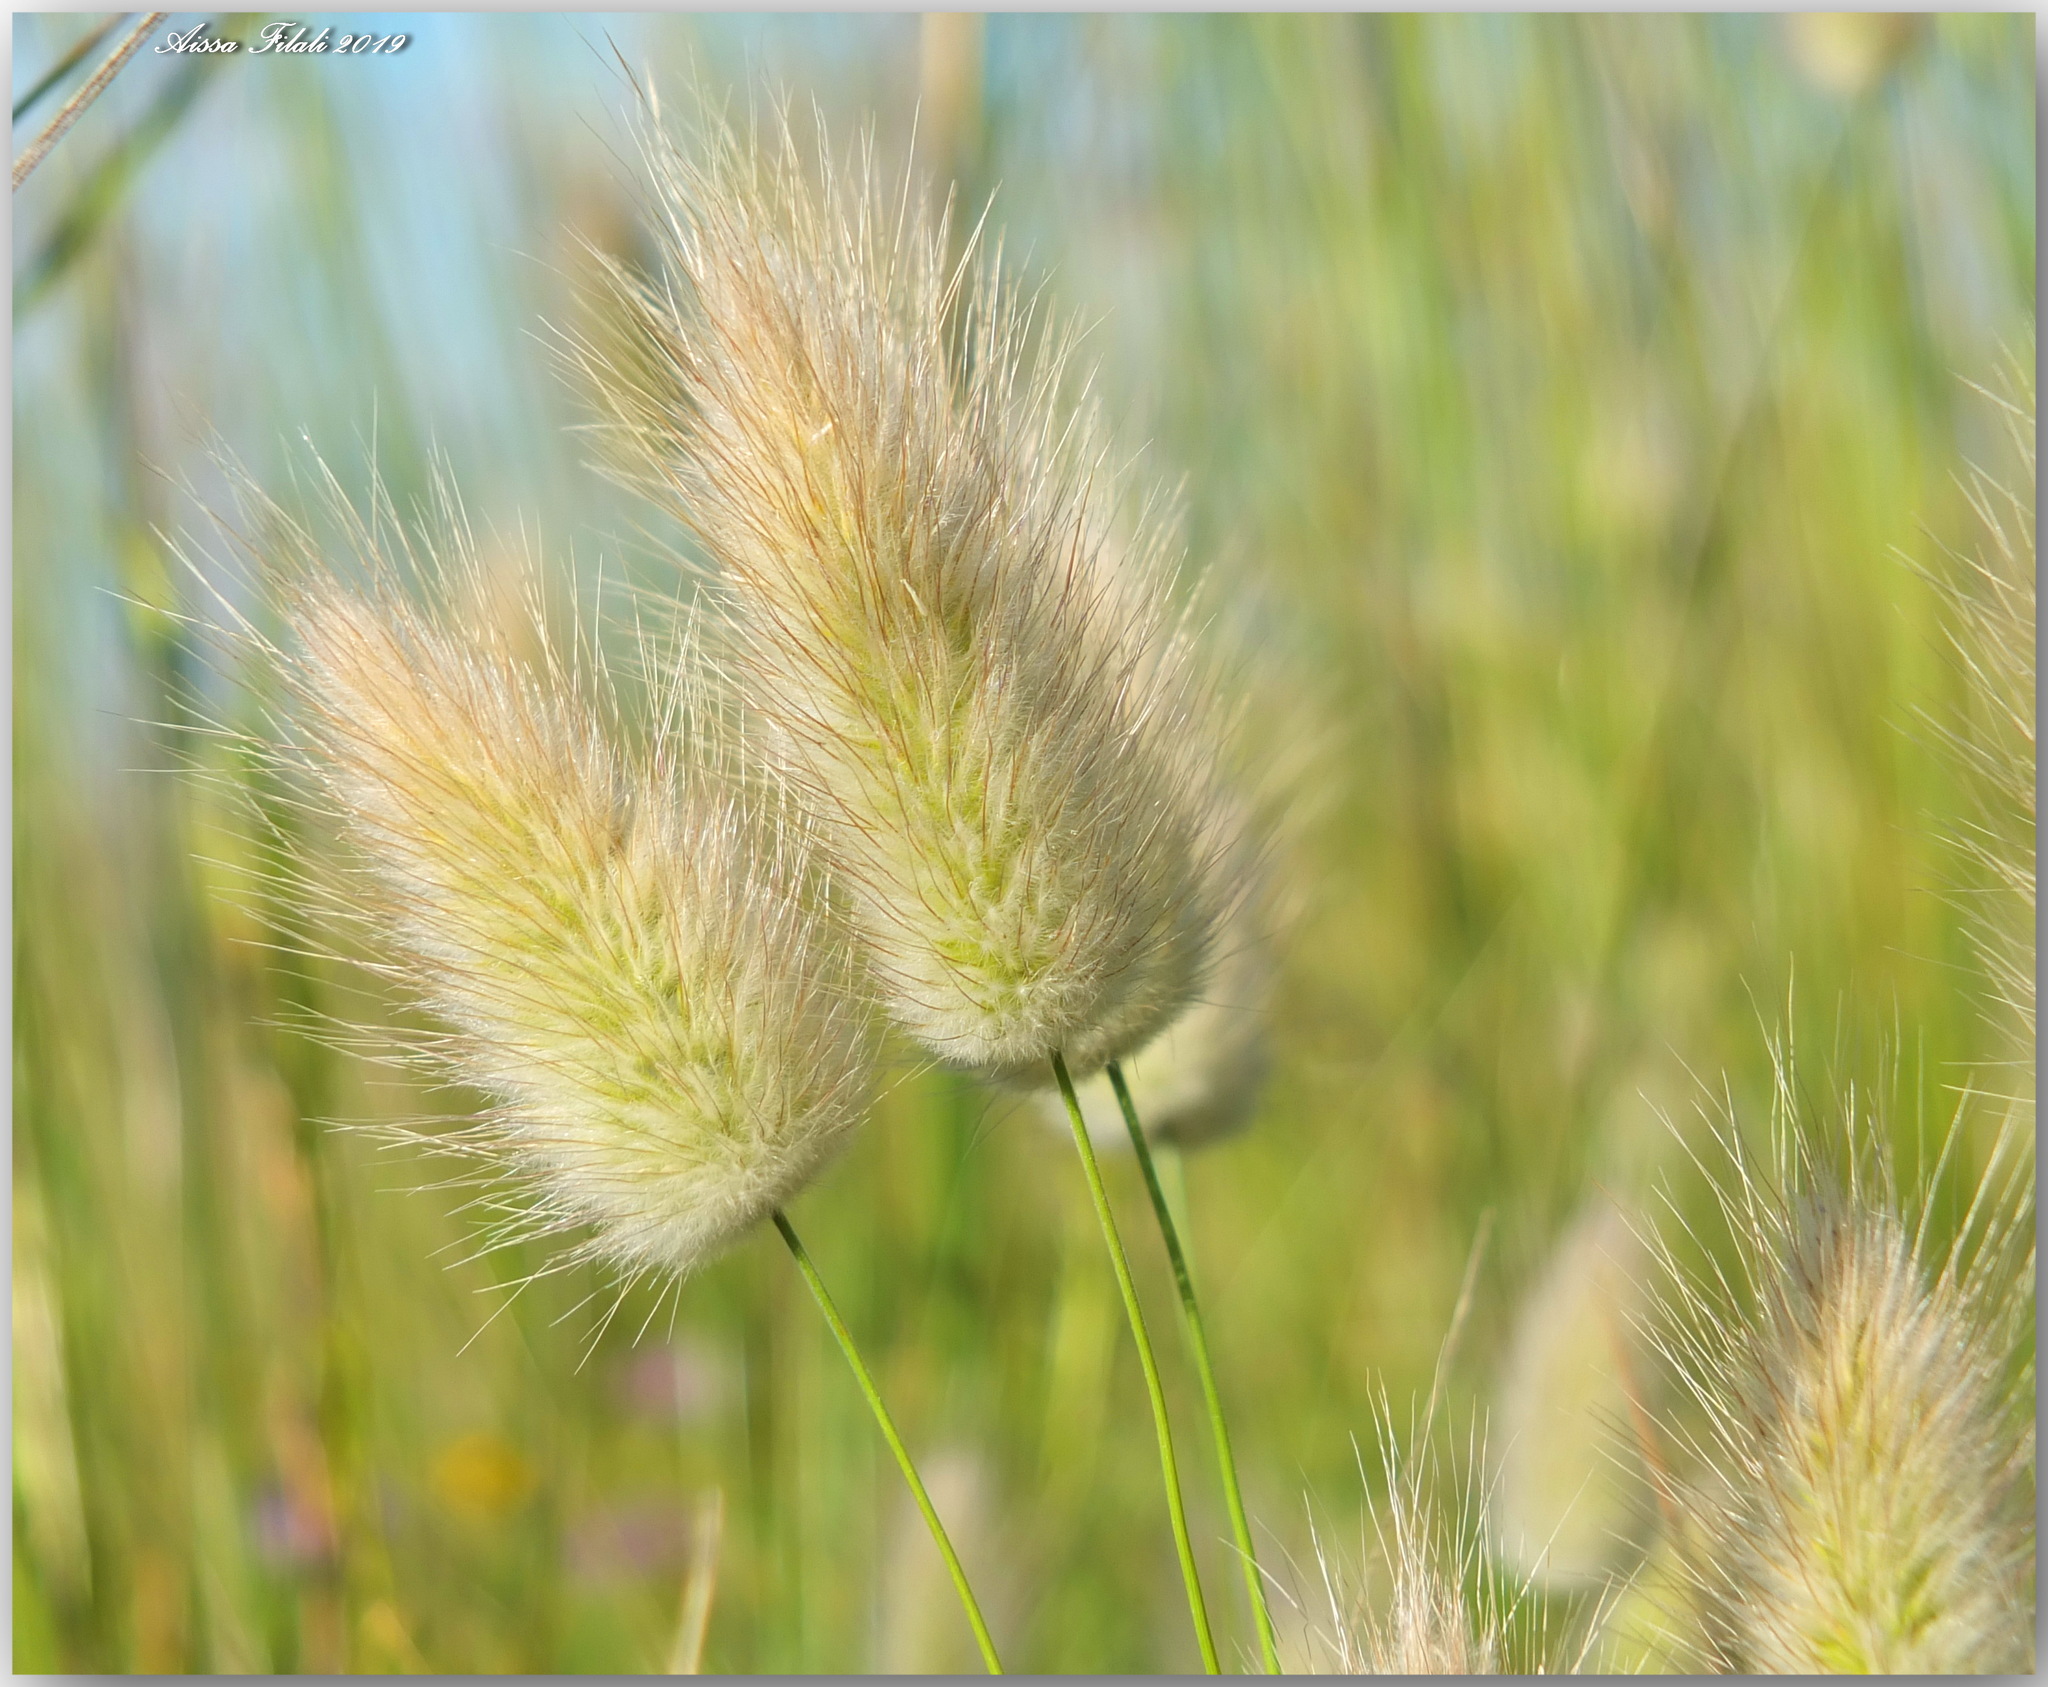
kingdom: Plantae
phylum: Tracheophyta
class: Liliopsida
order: Poales
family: Poaceae
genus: Lagurus
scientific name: Lagurus ovatus
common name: Hare's-tail
